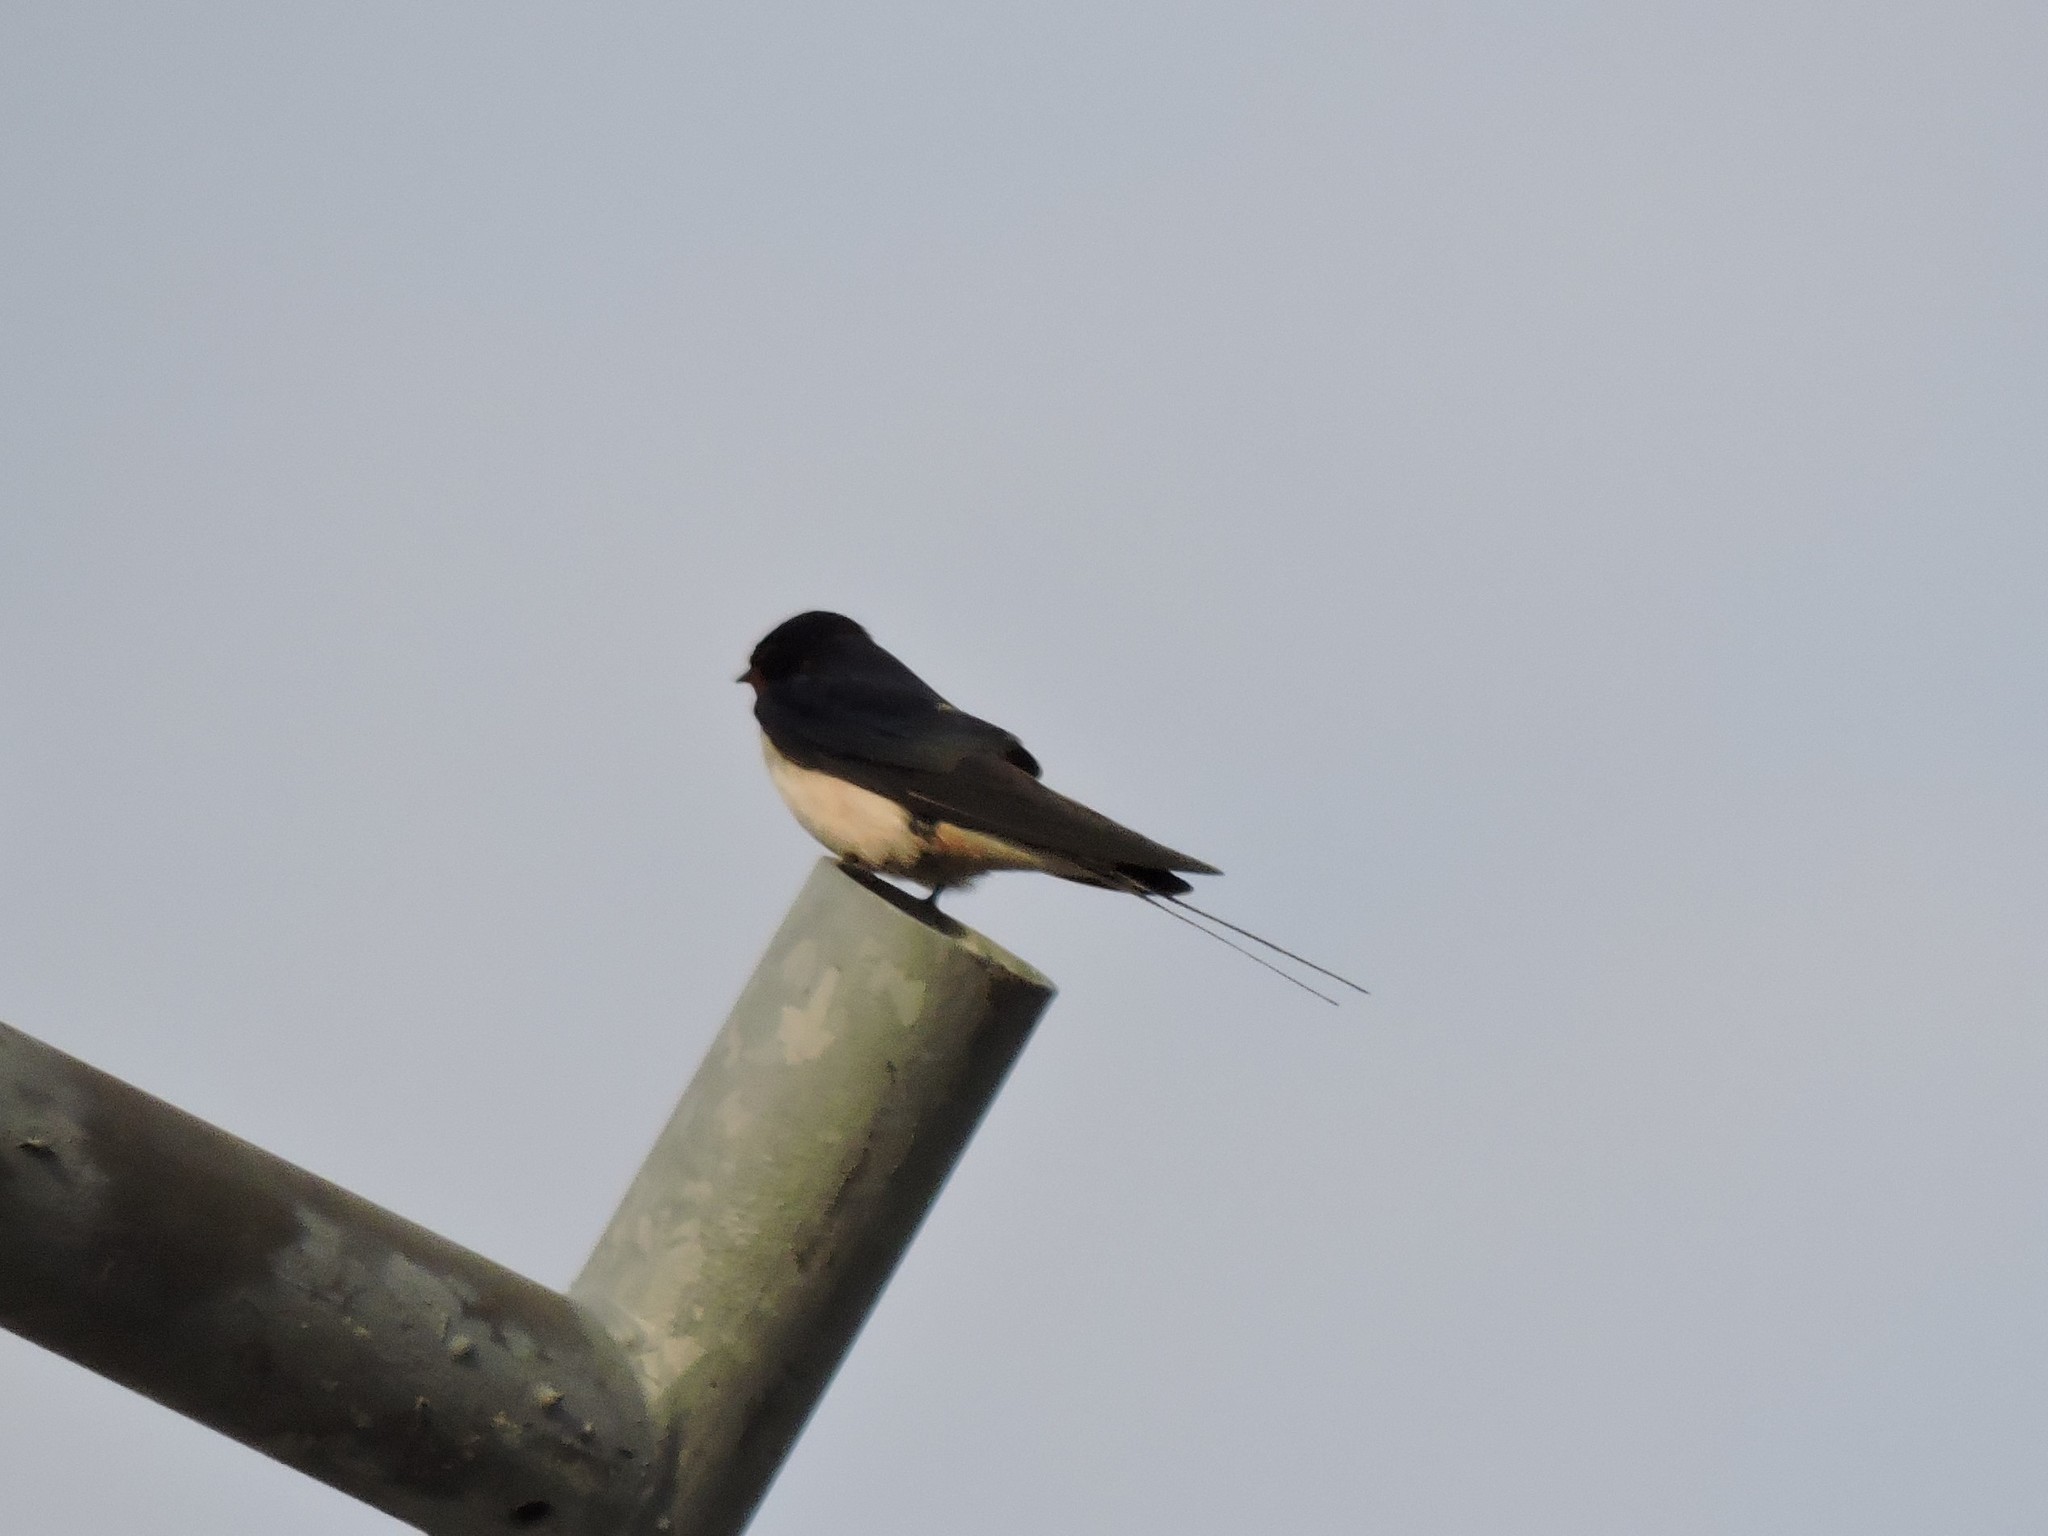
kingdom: Animalia
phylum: Chordata
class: Aves
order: Passeriformes
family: Hirundinidae
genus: Hirundo
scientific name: Hirundo rustica
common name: Barn swallow
